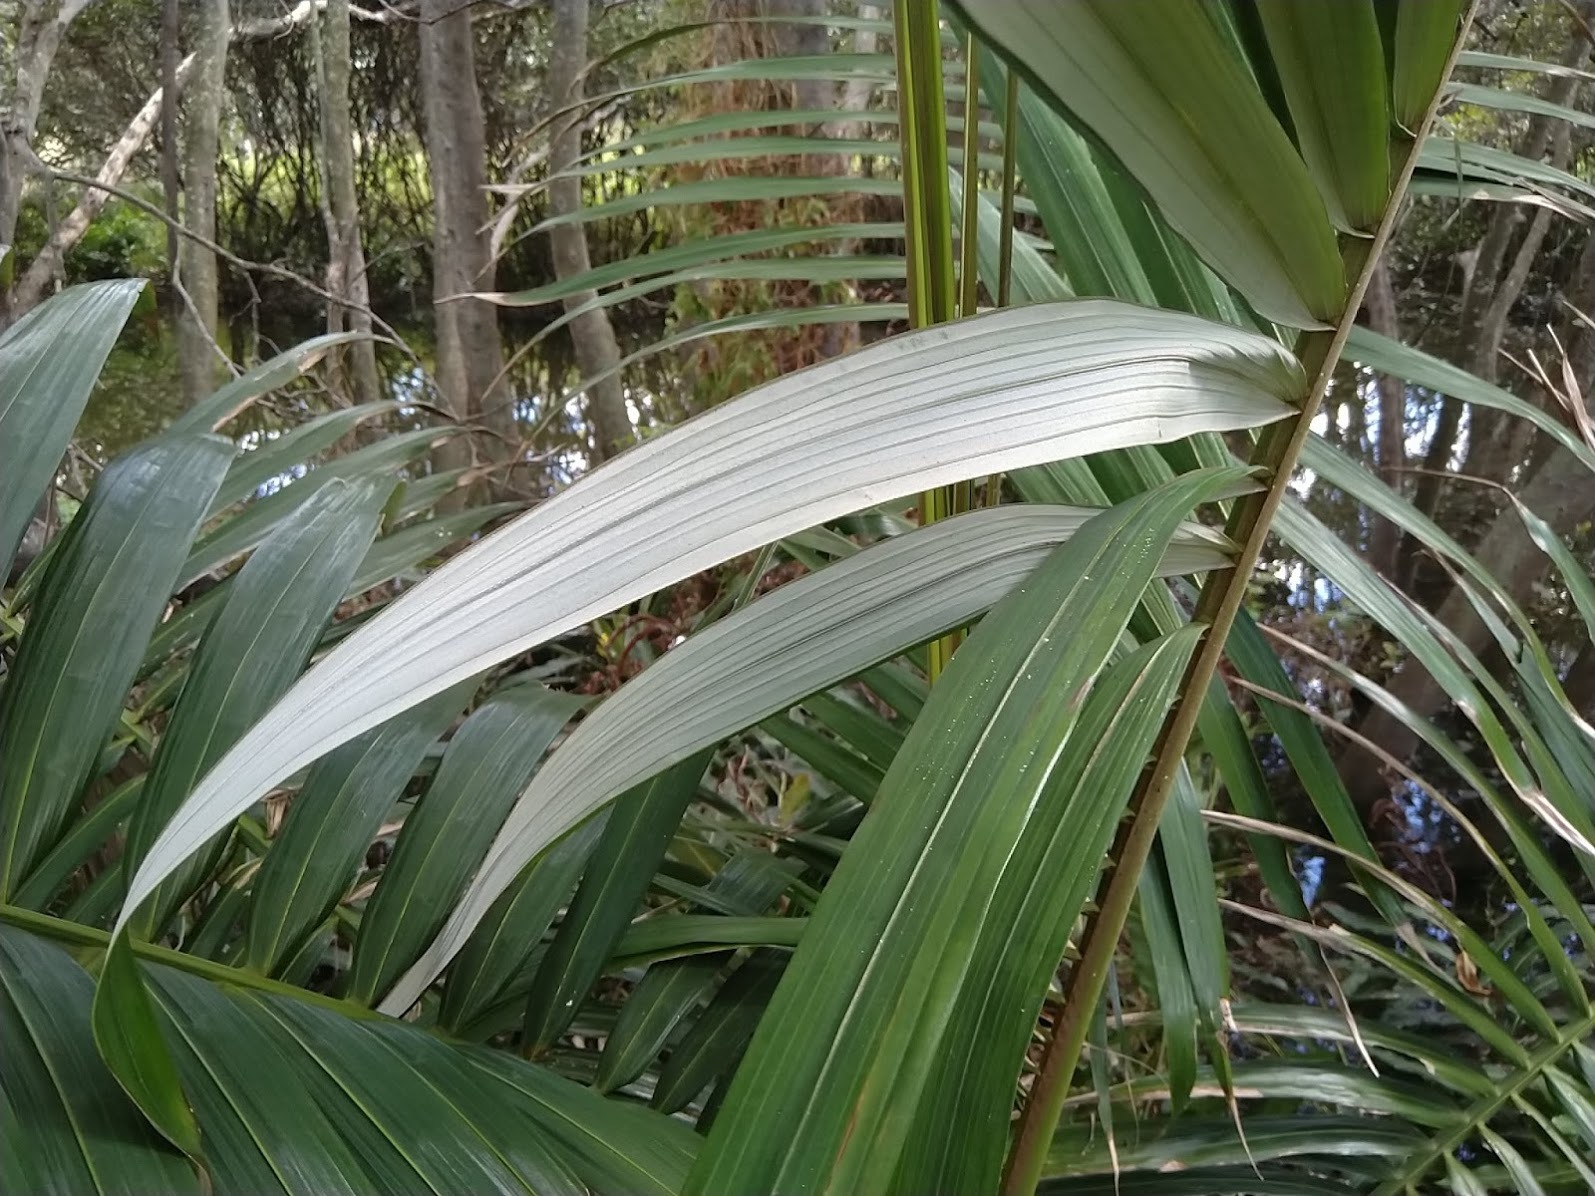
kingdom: Plantae
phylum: Tracheophyta
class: Liliopsida
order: Arecales
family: Arecaceae
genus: Archontophoenix
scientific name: Archontophoenix alexandrae
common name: Alexandra palm
